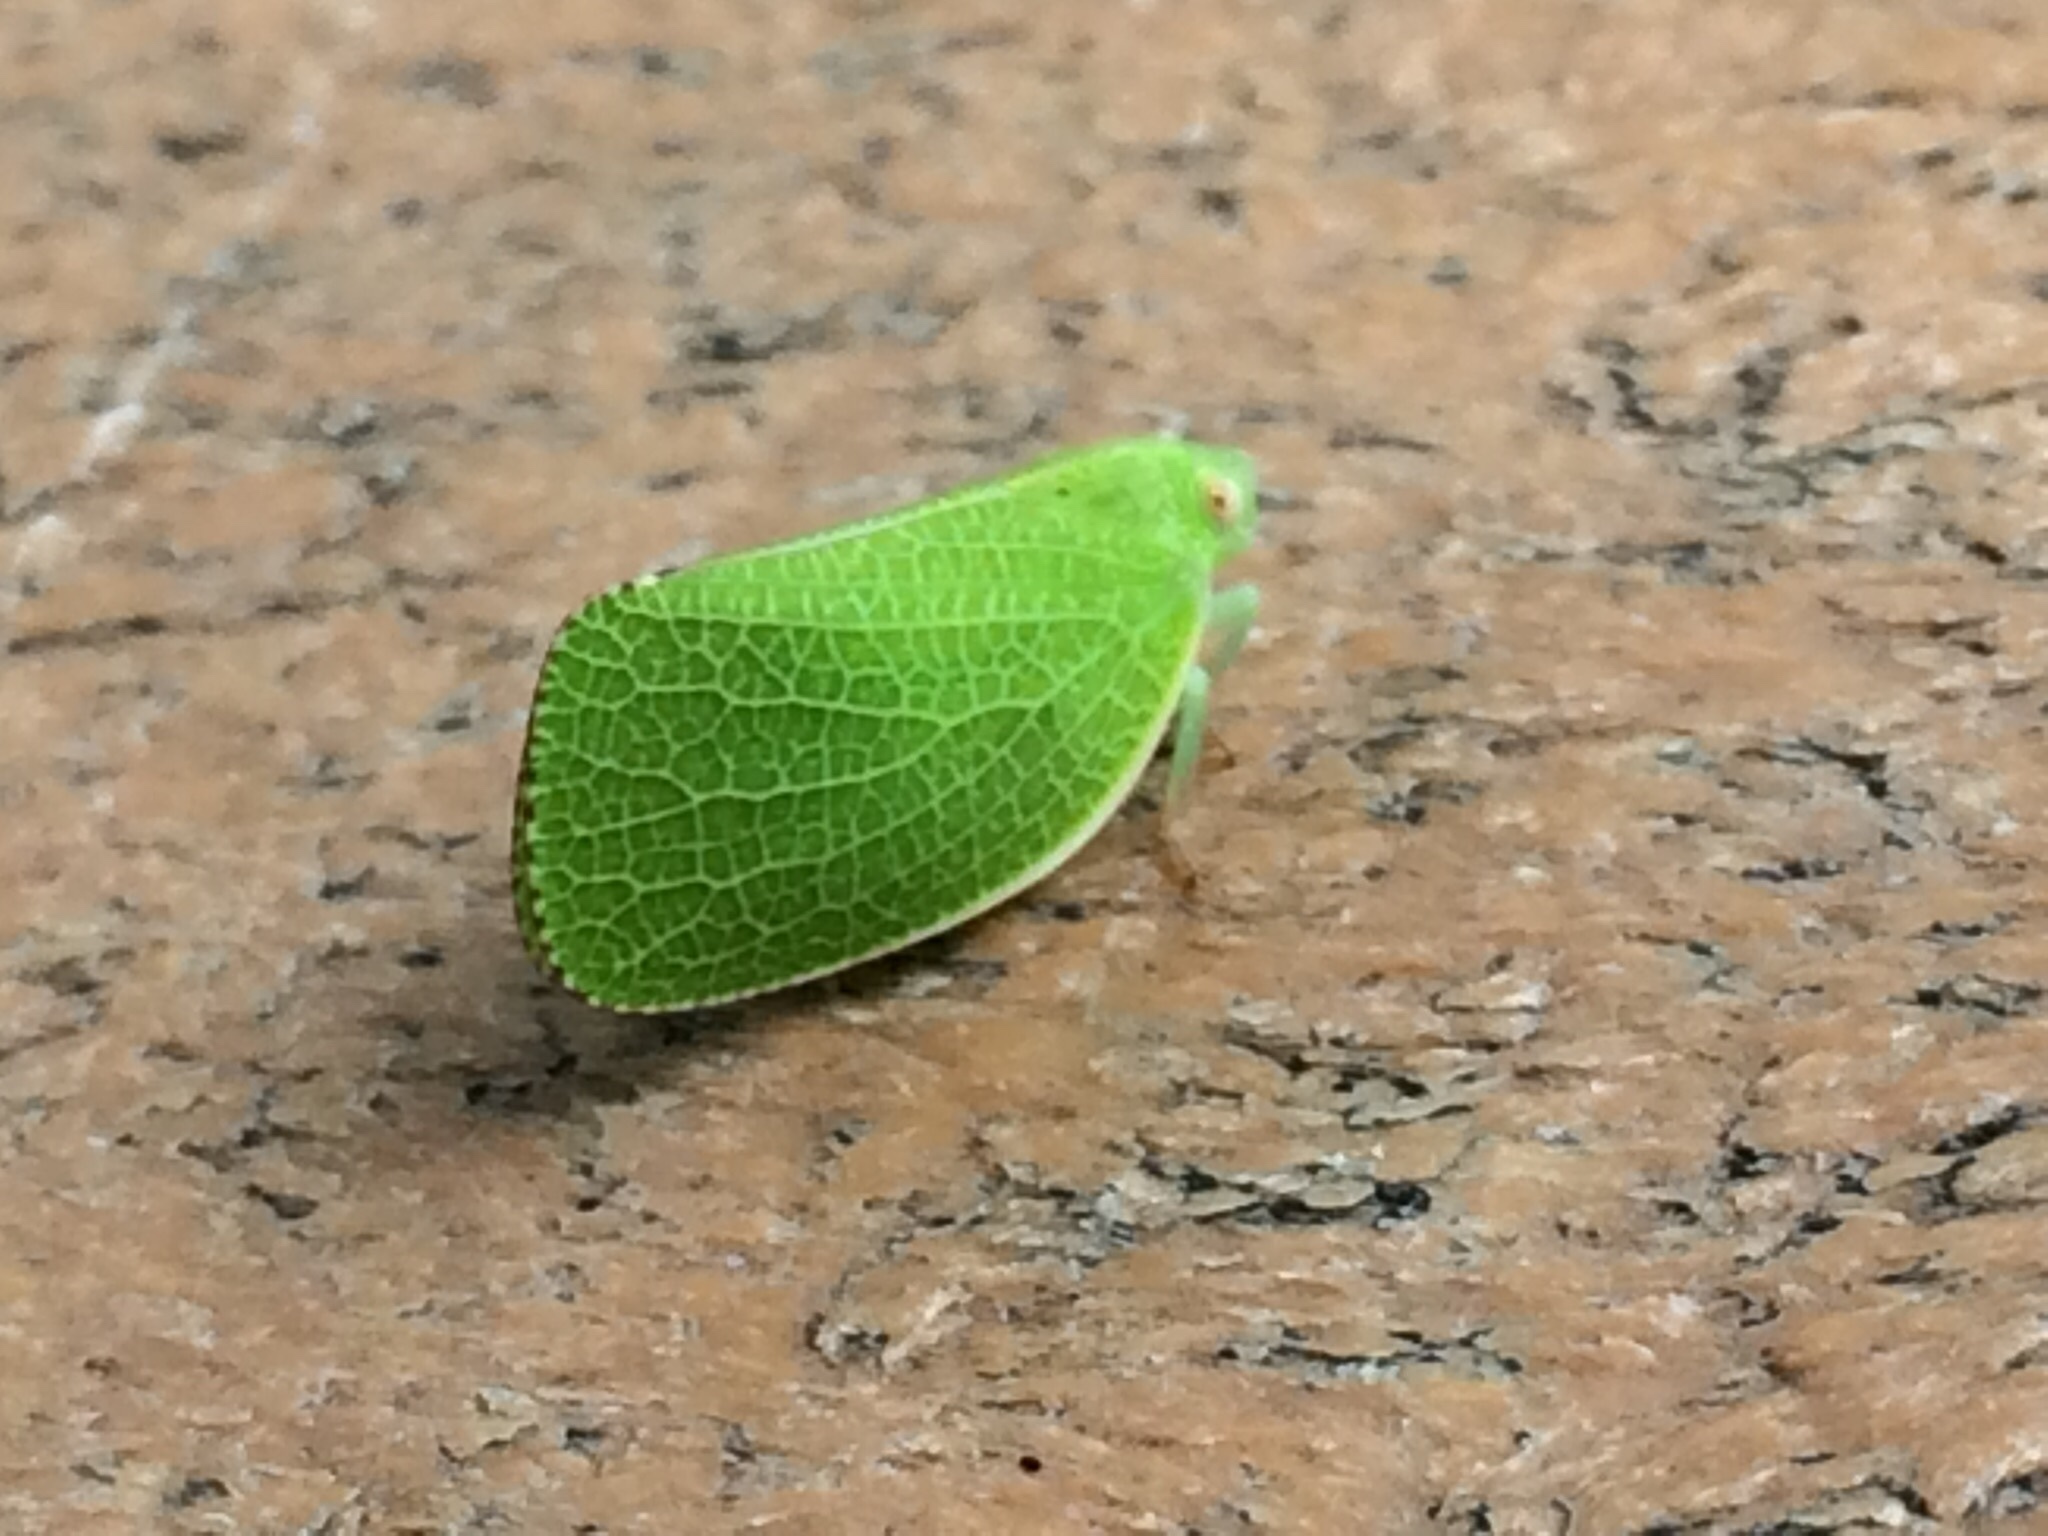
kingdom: Animalia
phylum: Arthropoda
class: Insecta
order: Hemiptera
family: Acanaloniidae
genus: Acanalonia
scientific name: Acanalonia conica
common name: Green cone-headed planthopper
